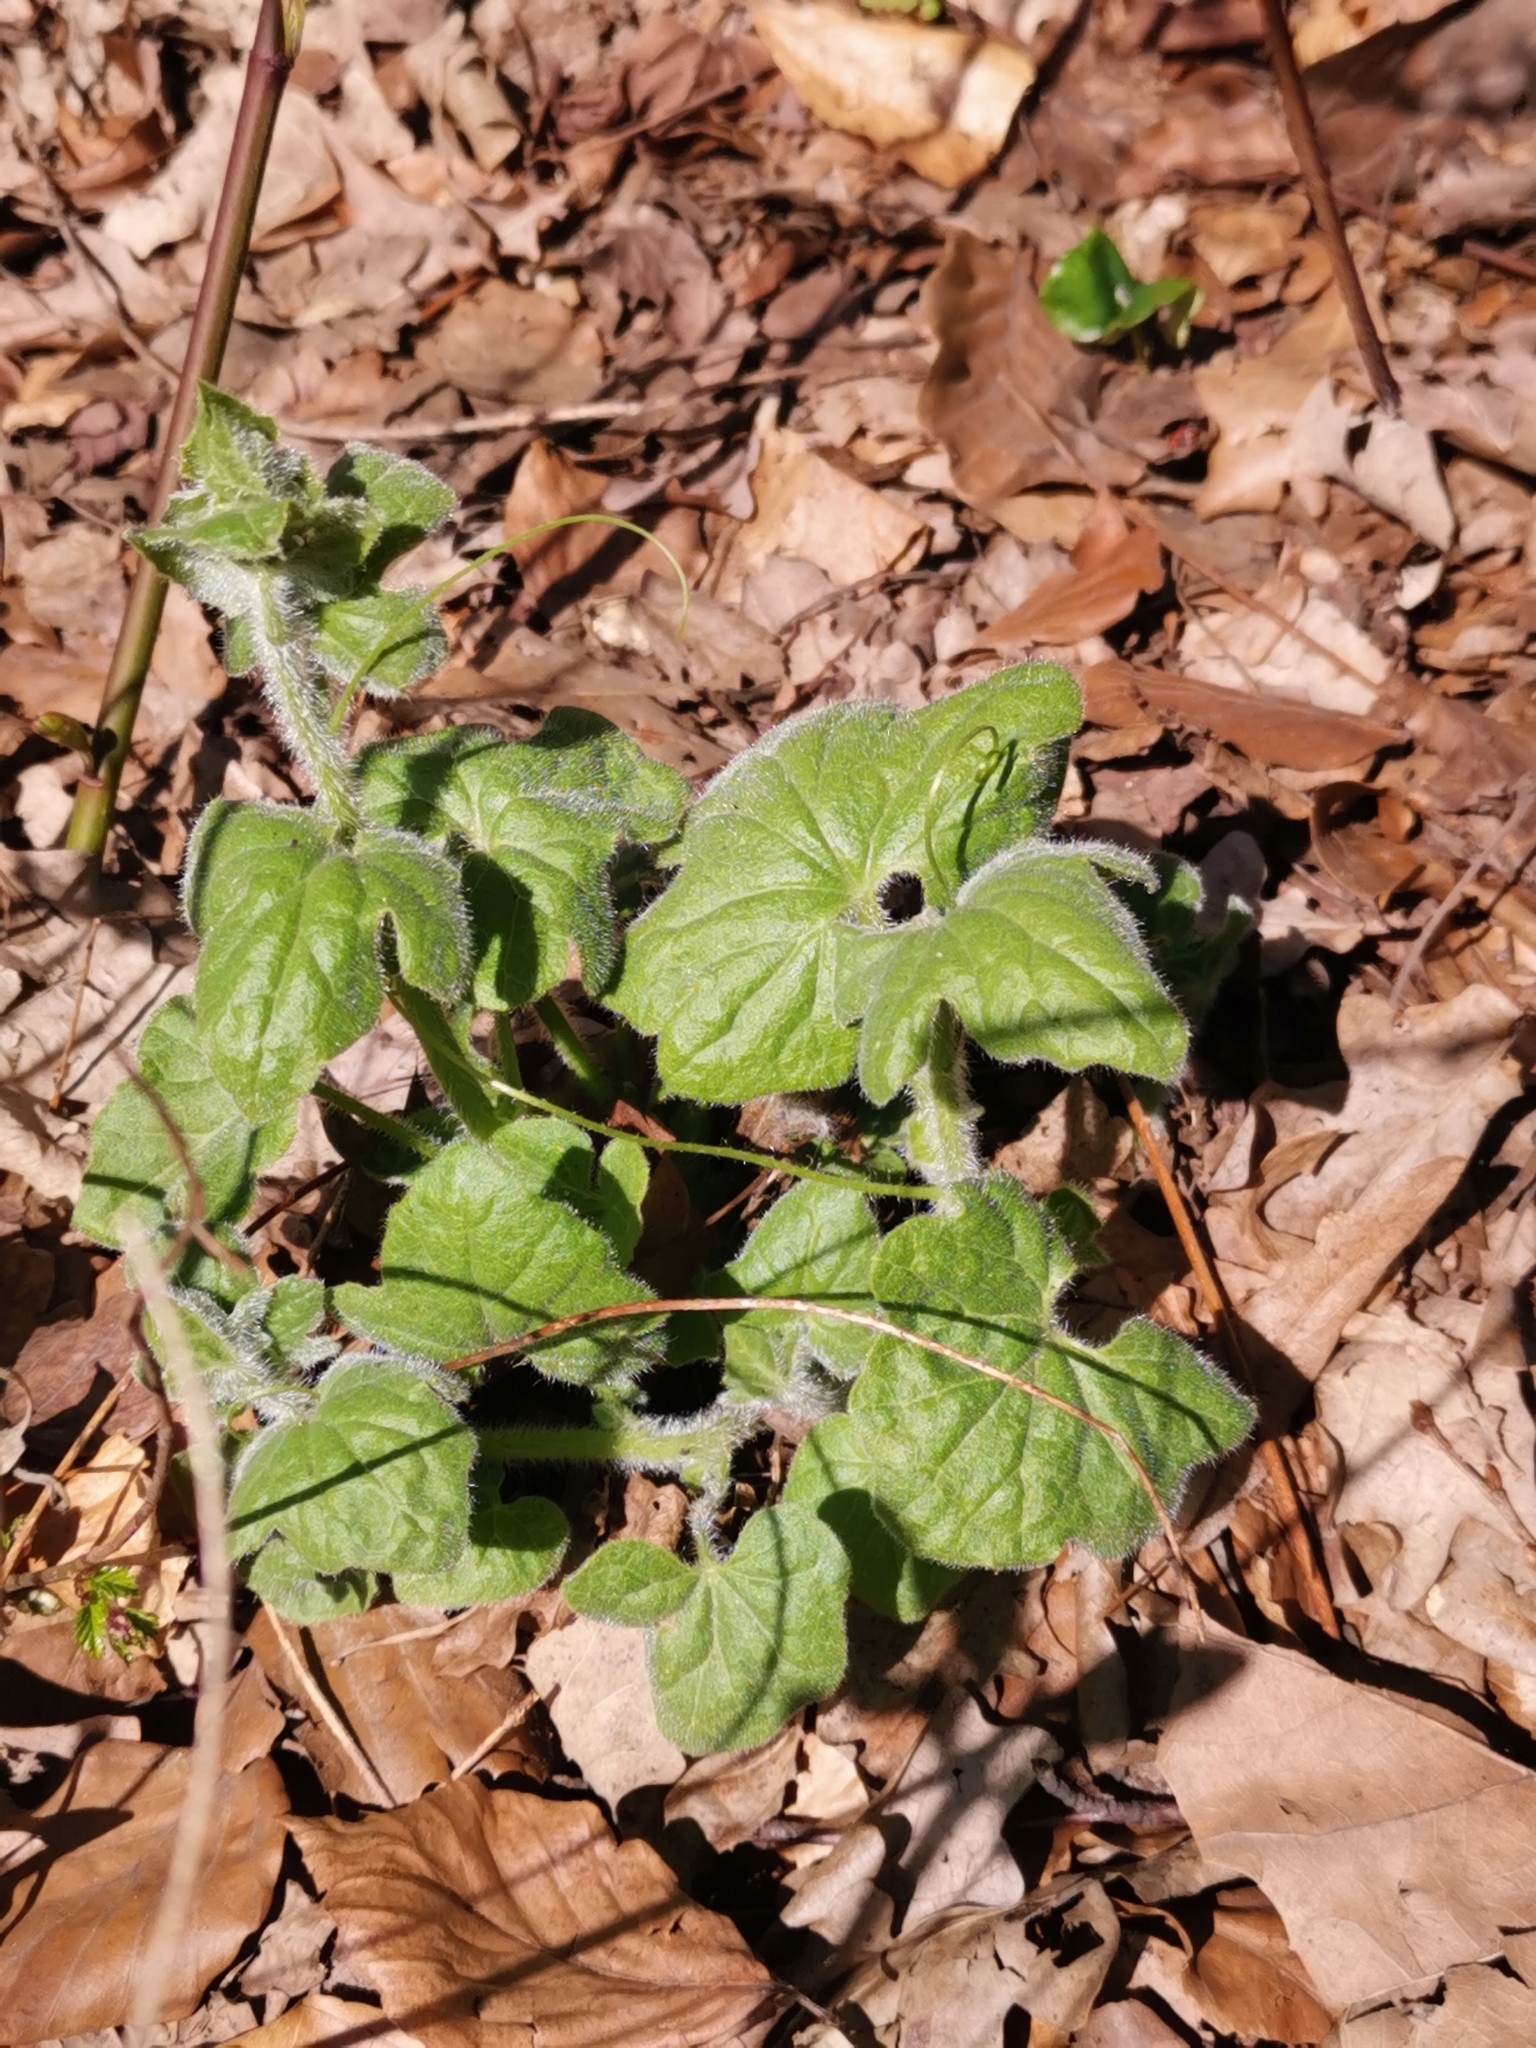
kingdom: Plantae
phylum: Tracheophyta
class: Magnoliopsida
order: Cucurbitales
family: Cucurbitaceae
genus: Bryonia
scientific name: Bryonia cretica
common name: Cretan bryony
